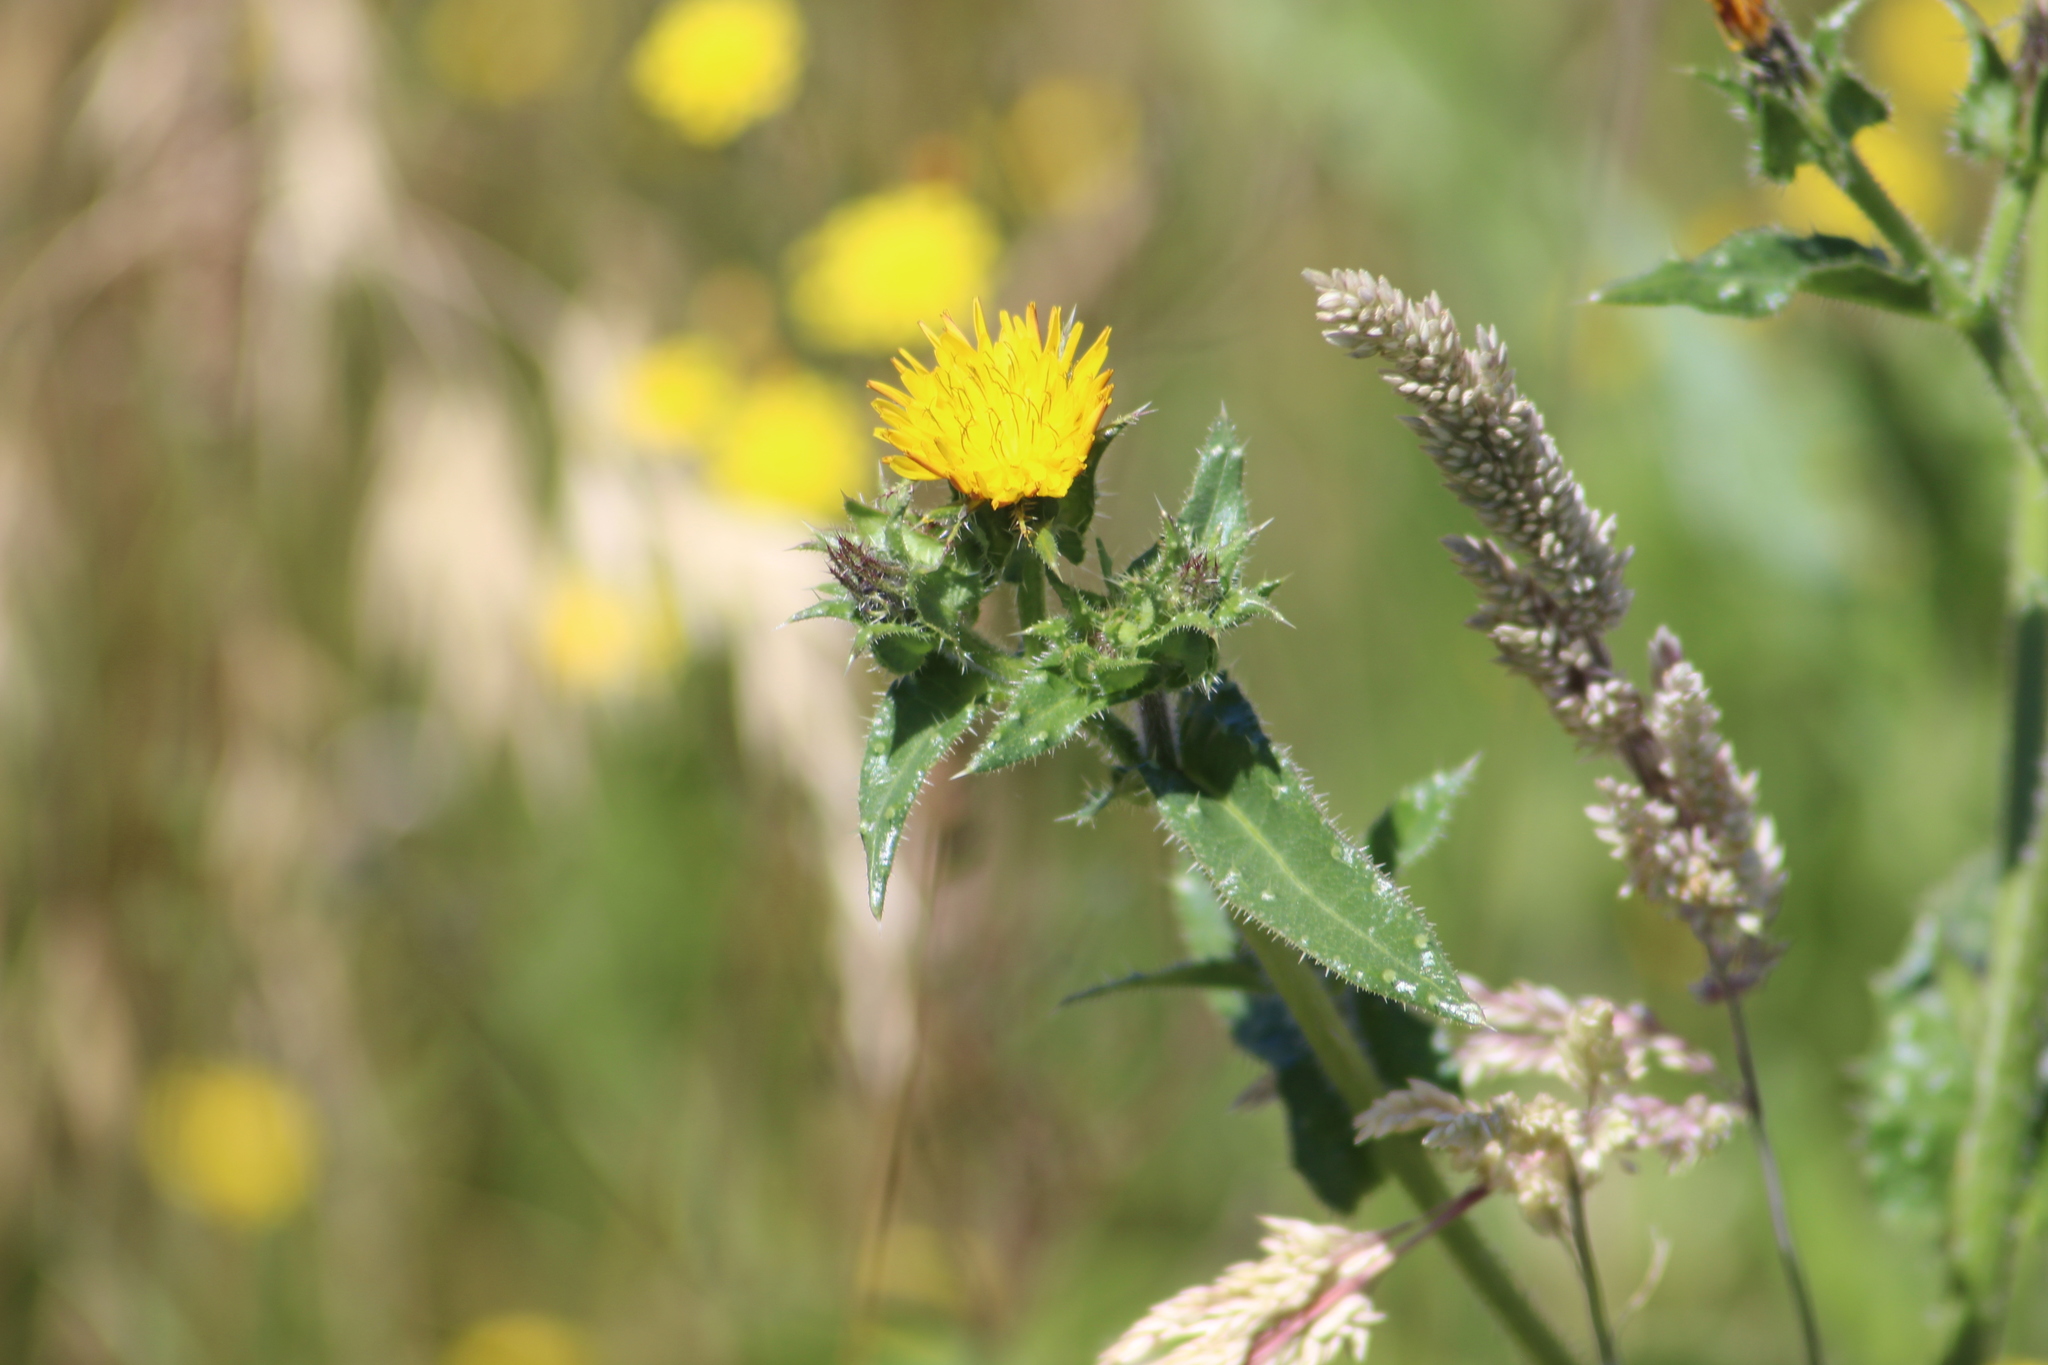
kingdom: Plantae
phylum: Tracheophyta
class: Magnoliopsida
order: Asterales
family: Asteraceae
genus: Helminthotheca
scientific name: Helminthotheca echioides
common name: Ox-tongue
